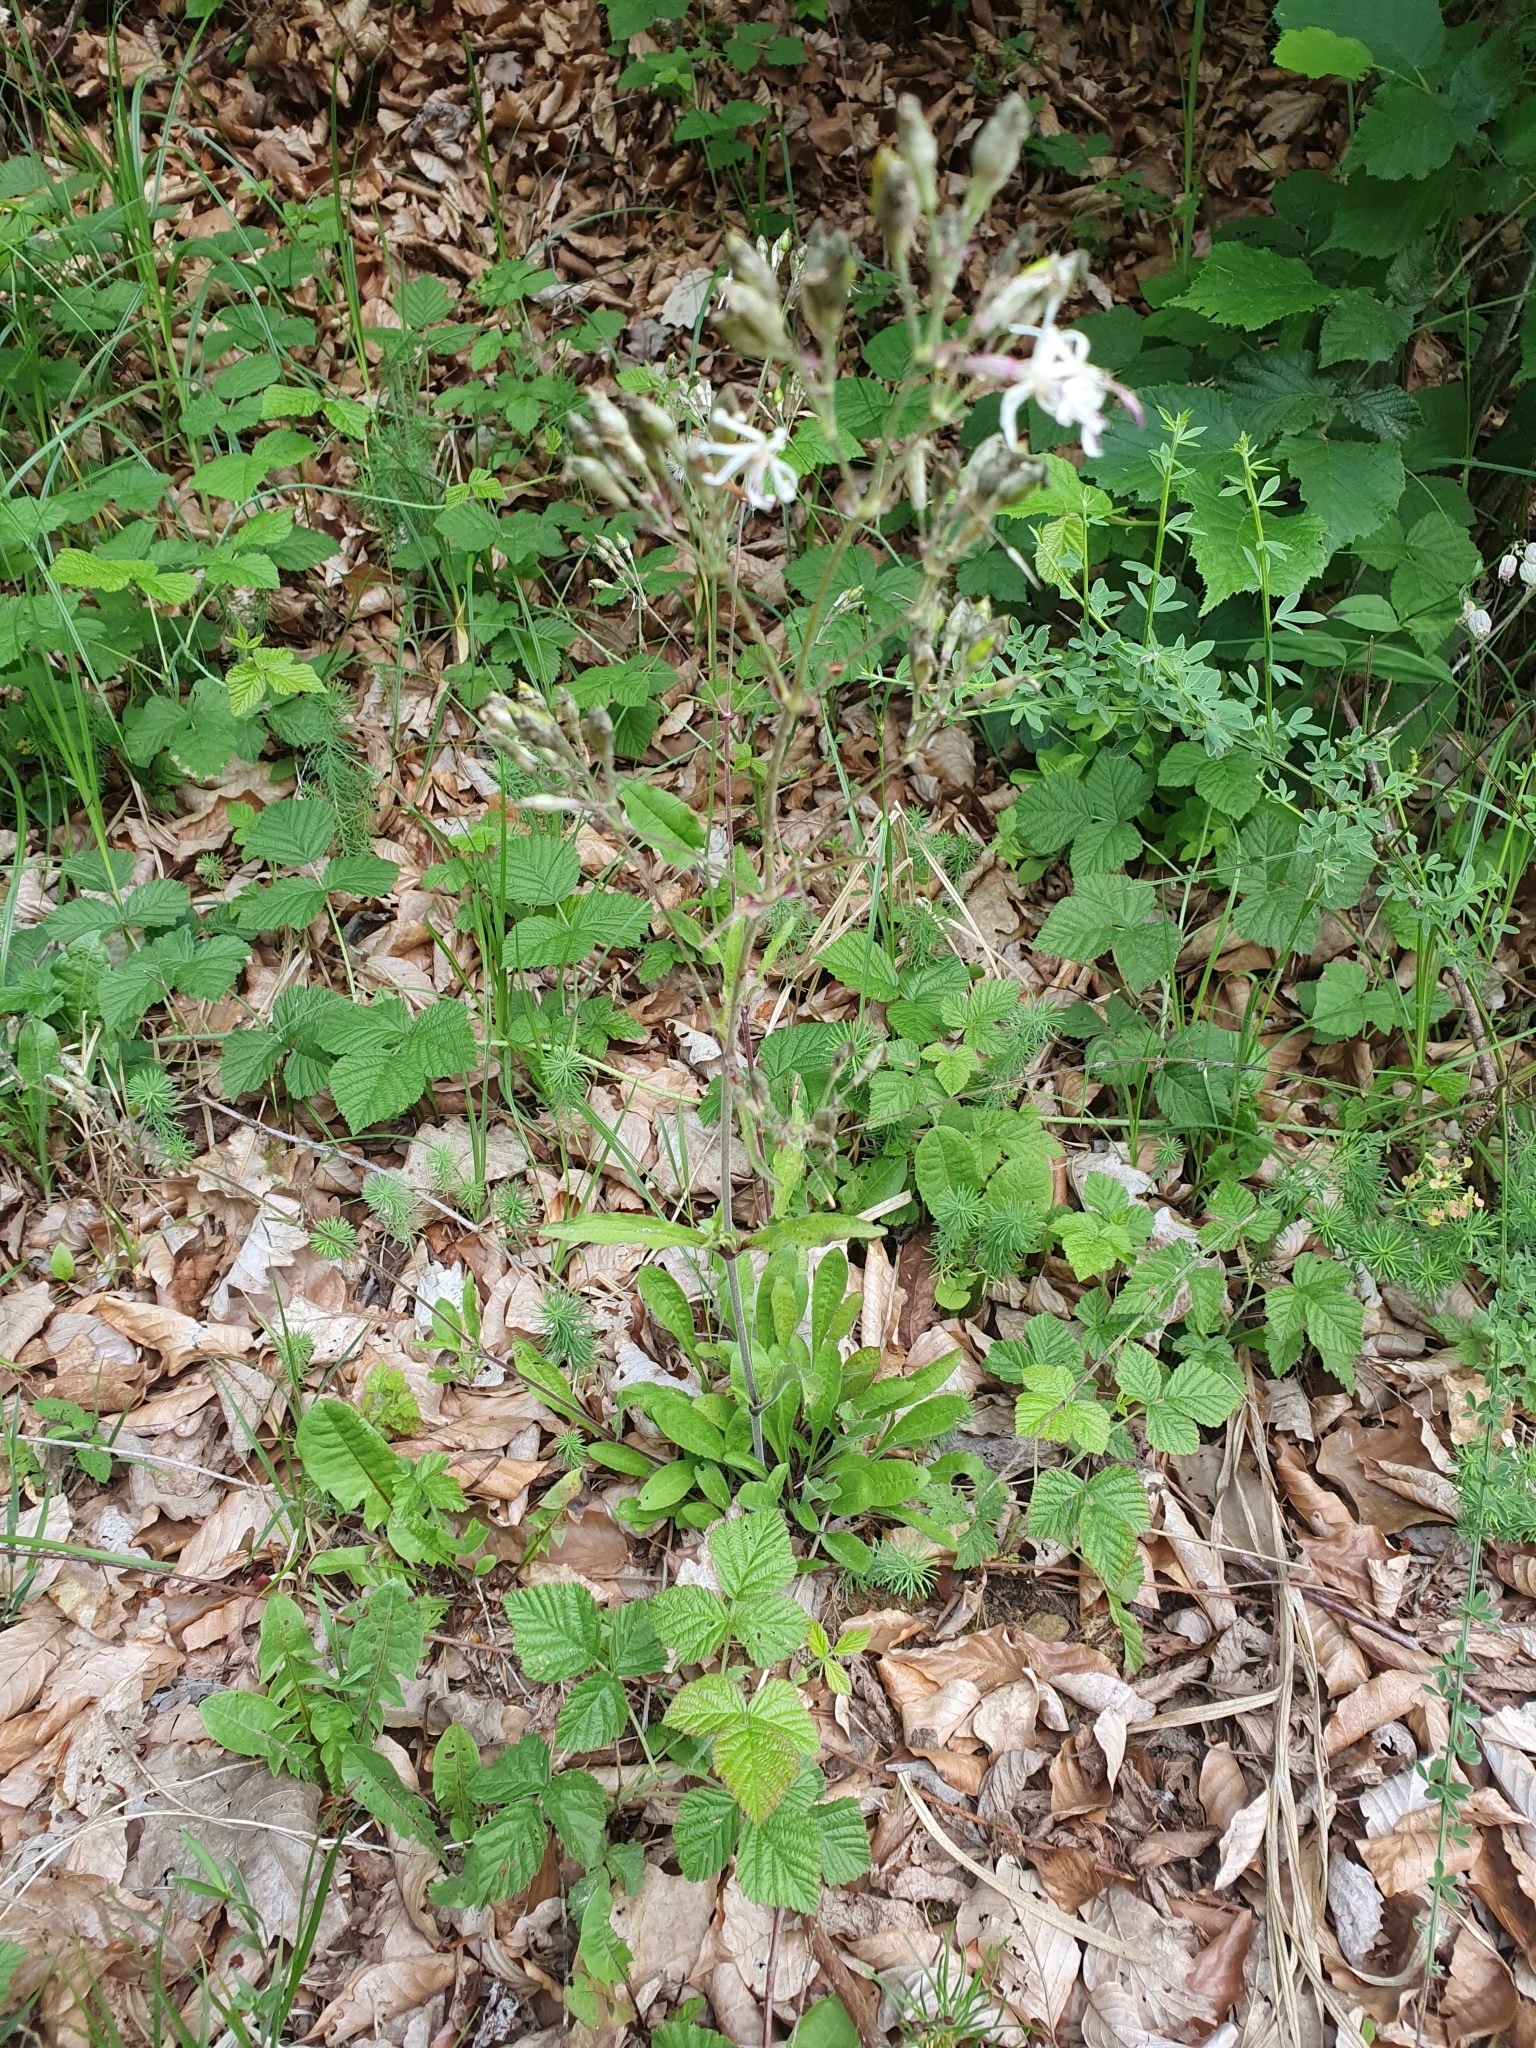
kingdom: Plantae
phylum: Tracheophyta
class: Magnoliopsida
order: Caryophyllales
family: Caryophyllaceae
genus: Silene
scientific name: Silene nutans
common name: Nottingham catchfly
